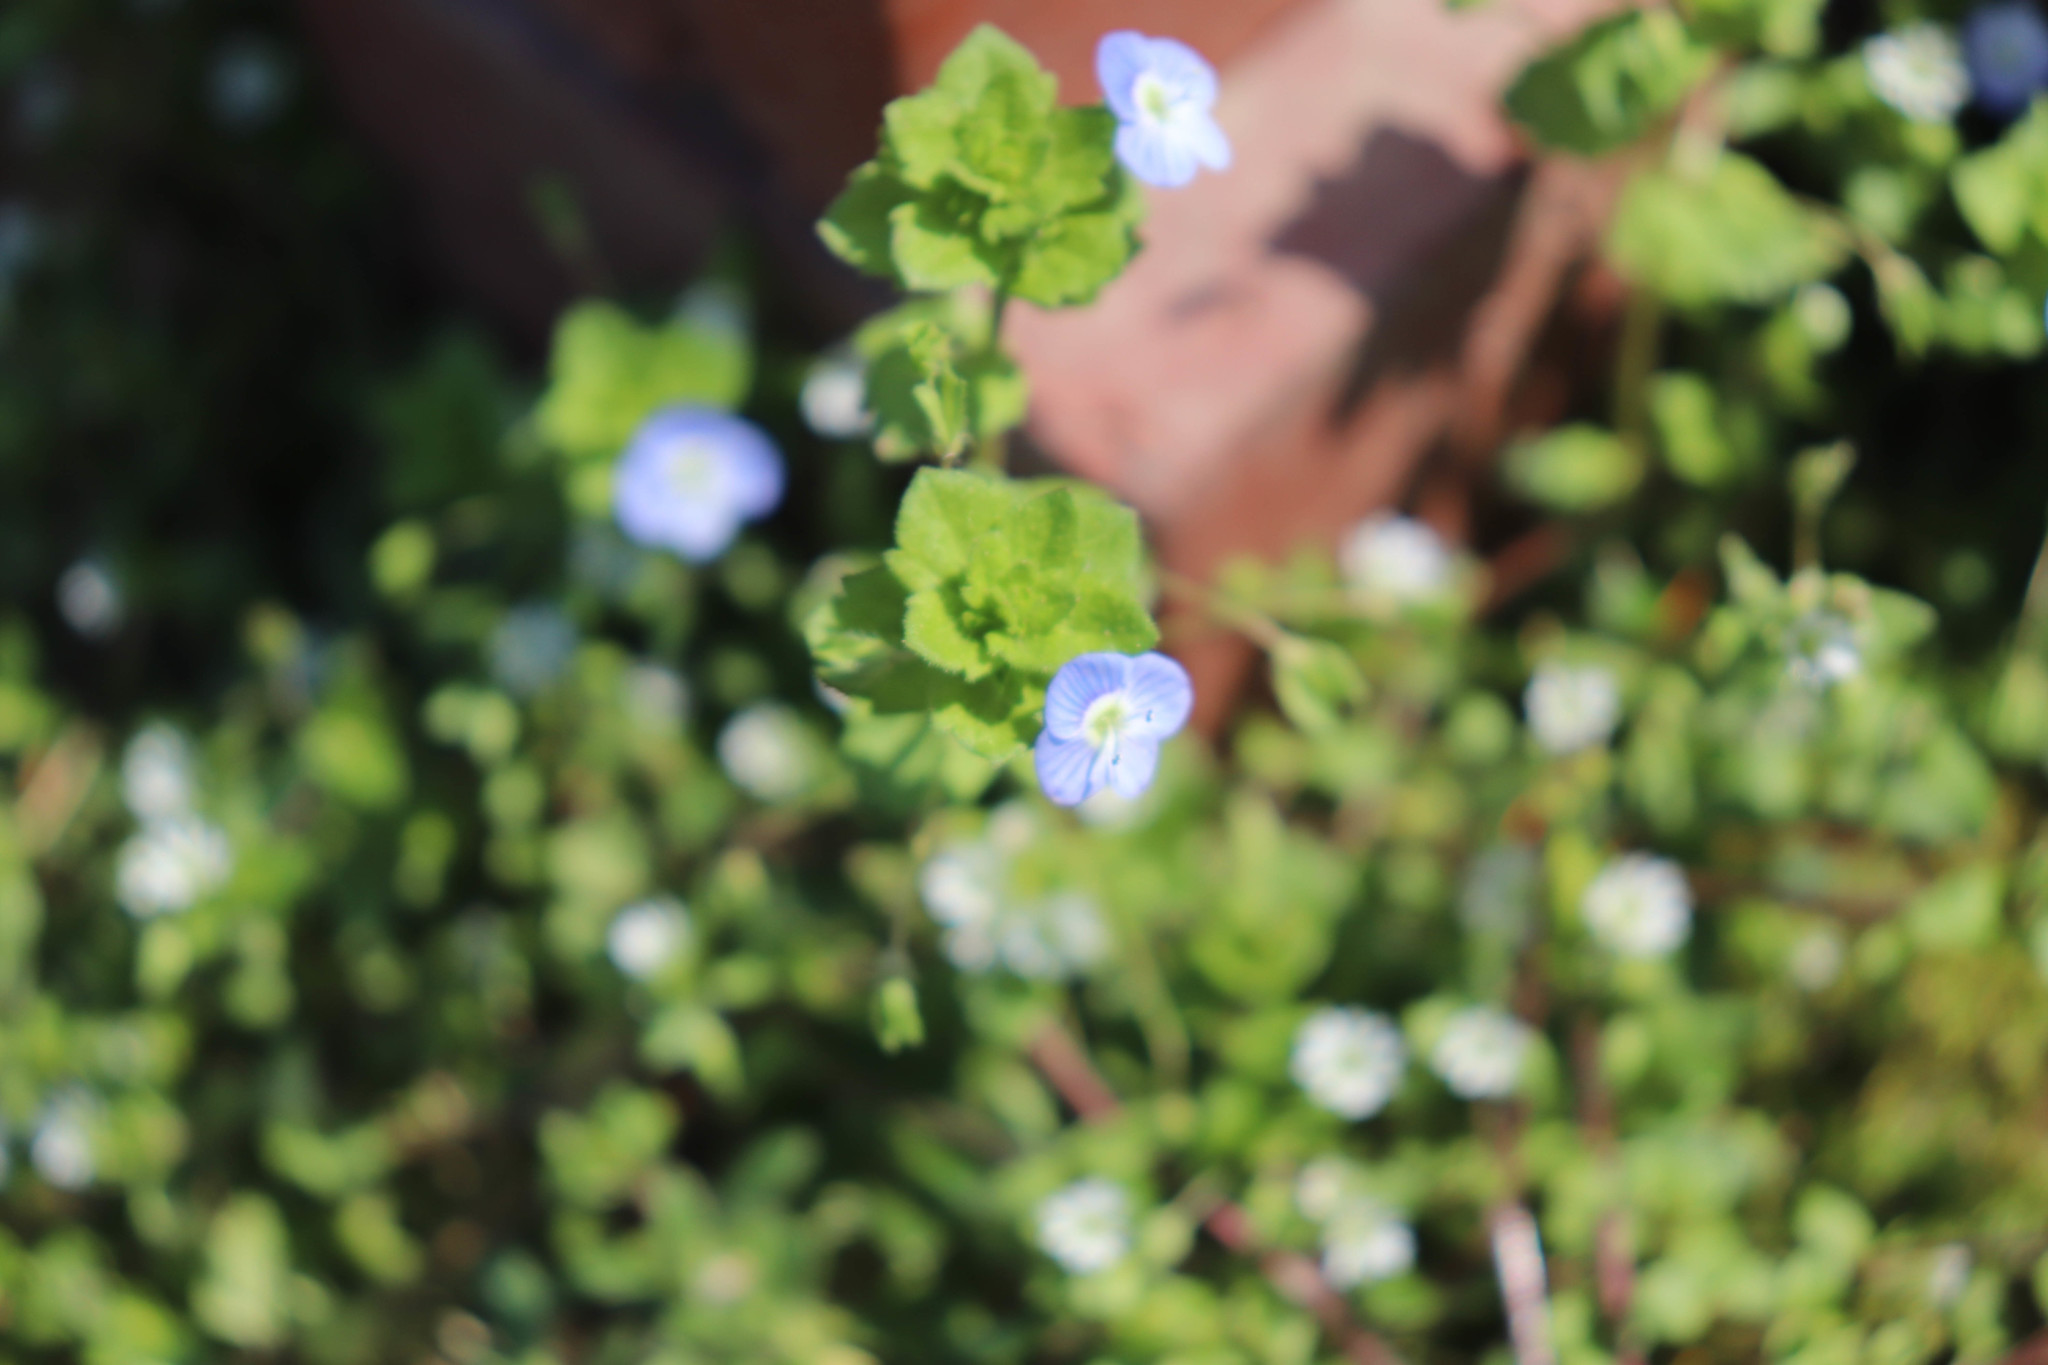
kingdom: Plantae
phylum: Tracheophyta
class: Magnoliopsida
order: Lamiales
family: Plantaginaceae
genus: Veronica
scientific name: Veronica persica
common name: Common field-speedwell
